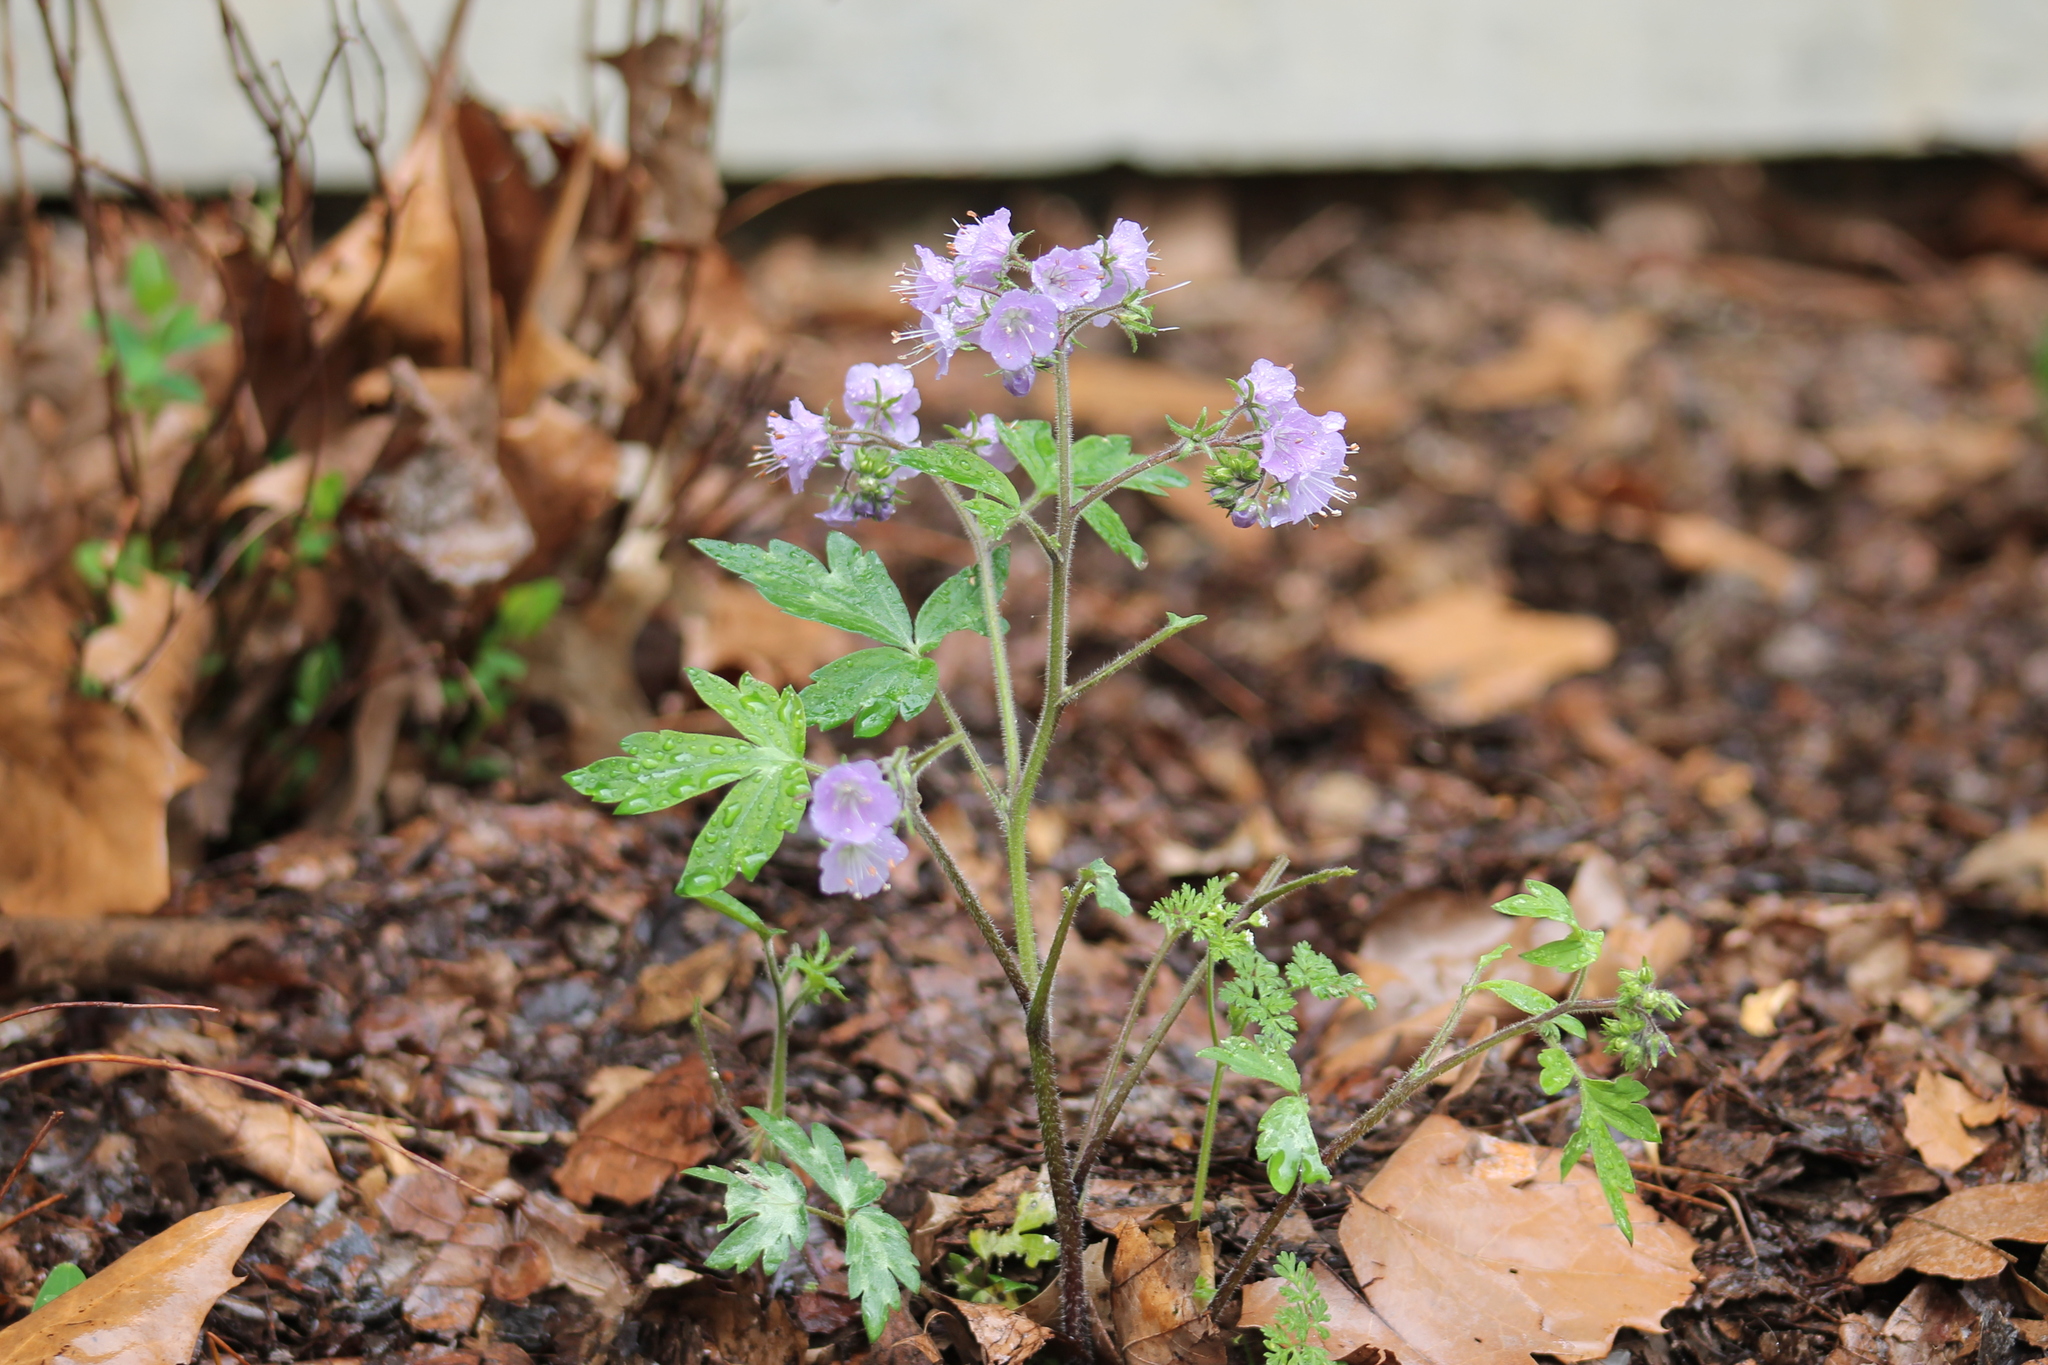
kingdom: Plantae
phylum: Tracheophyta
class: Magnoliopsida
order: Boraginales
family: Hydrophyllaceae
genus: Phacelia
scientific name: Phacelia bipinnatifida
